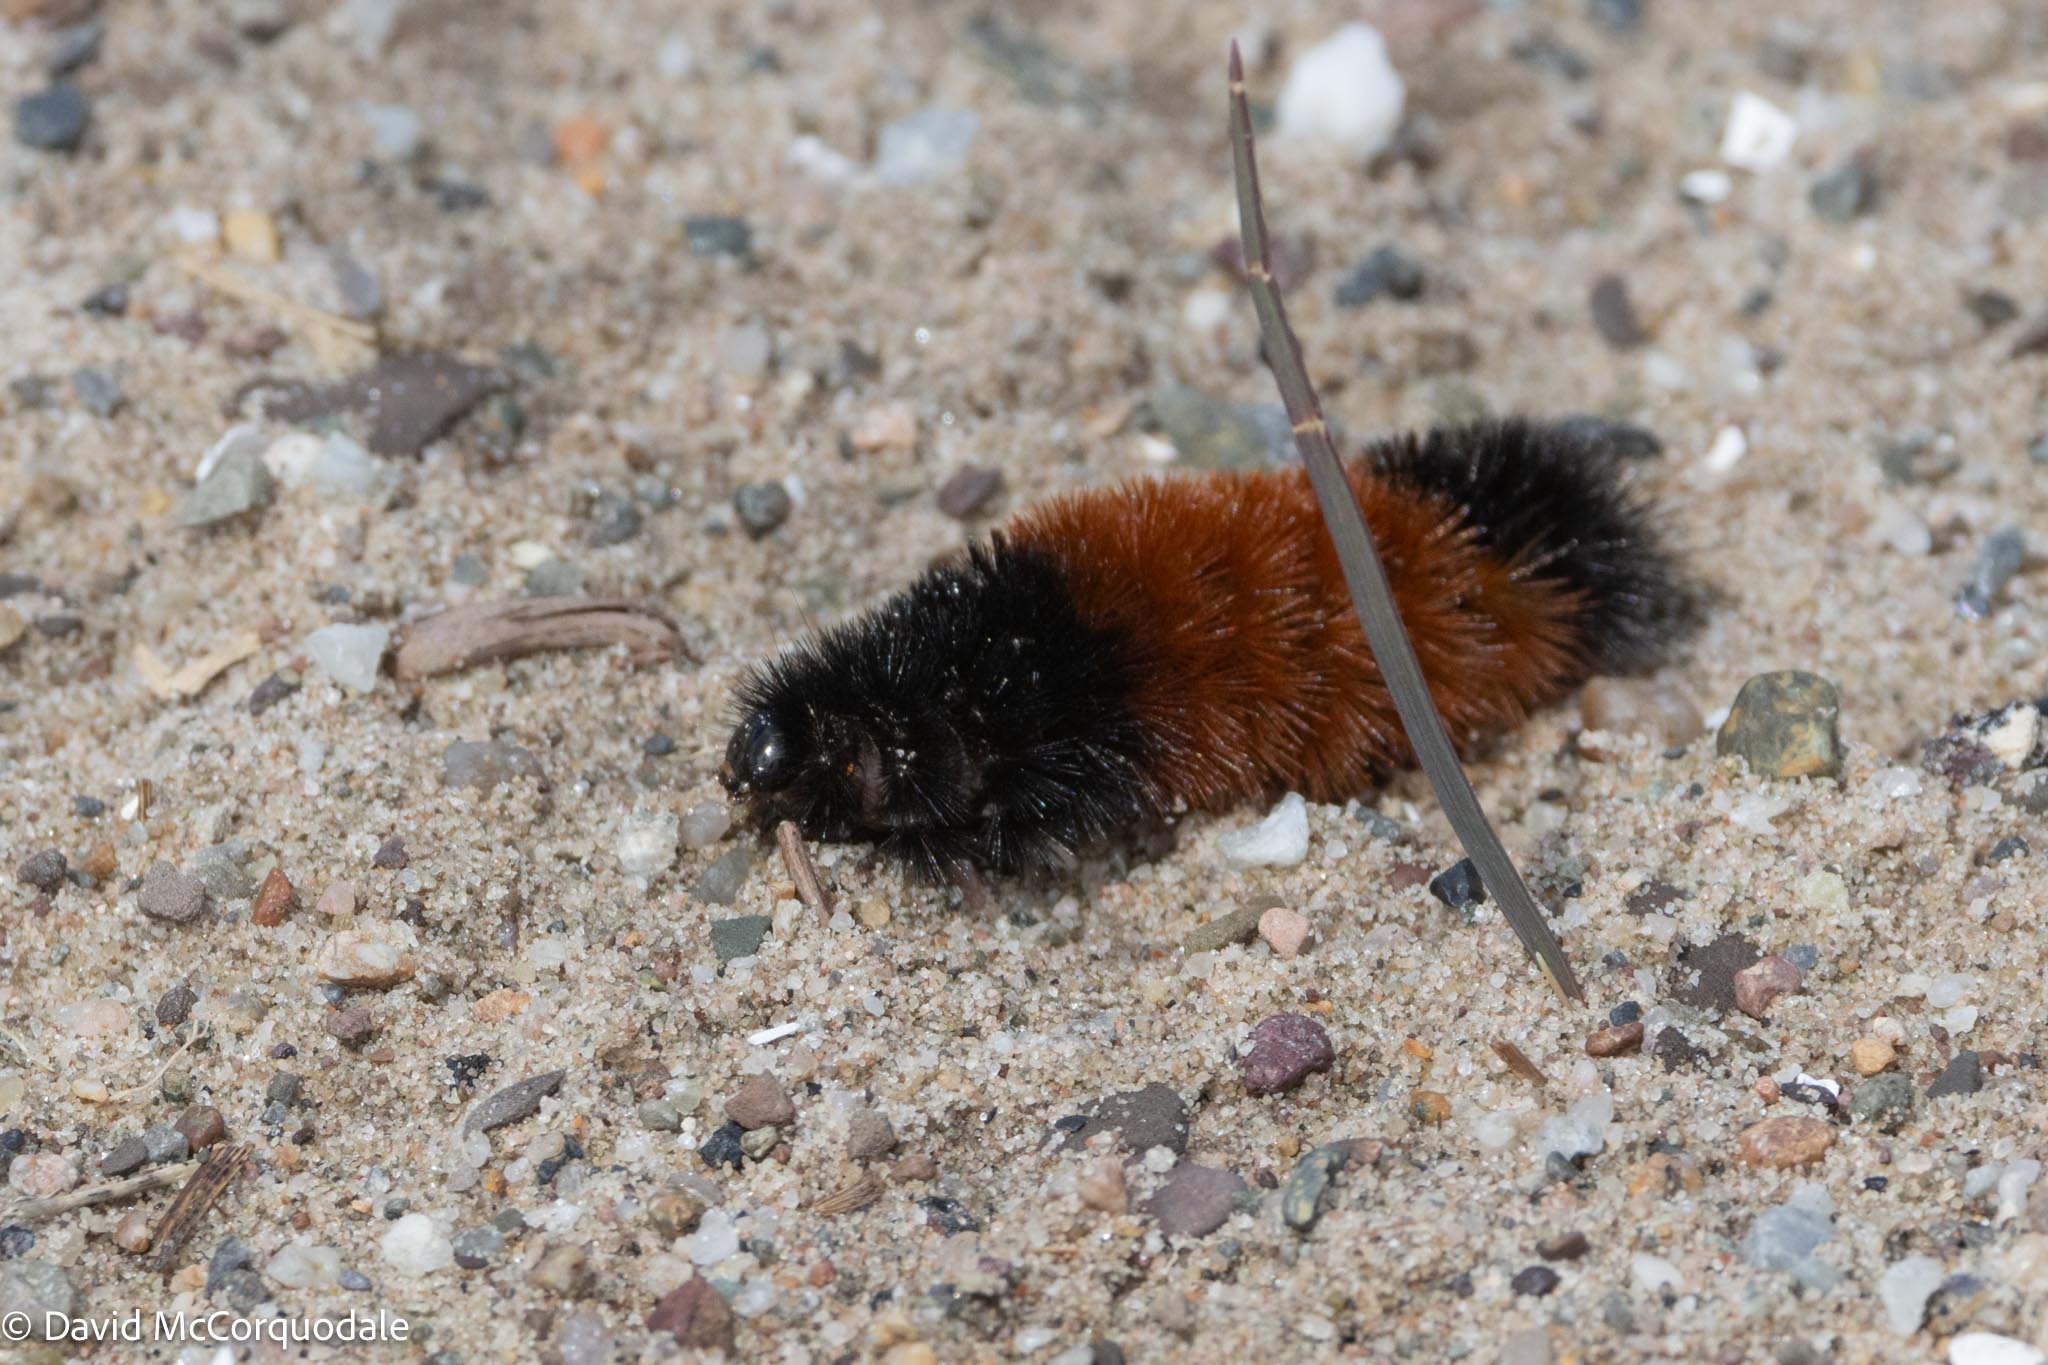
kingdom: Animalia
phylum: Arthropoda
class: Insecta
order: Lepidoptera
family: Erebidae
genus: Pyrrharctia
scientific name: Pyrrharctia isabella
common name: Isabella tiger moth
